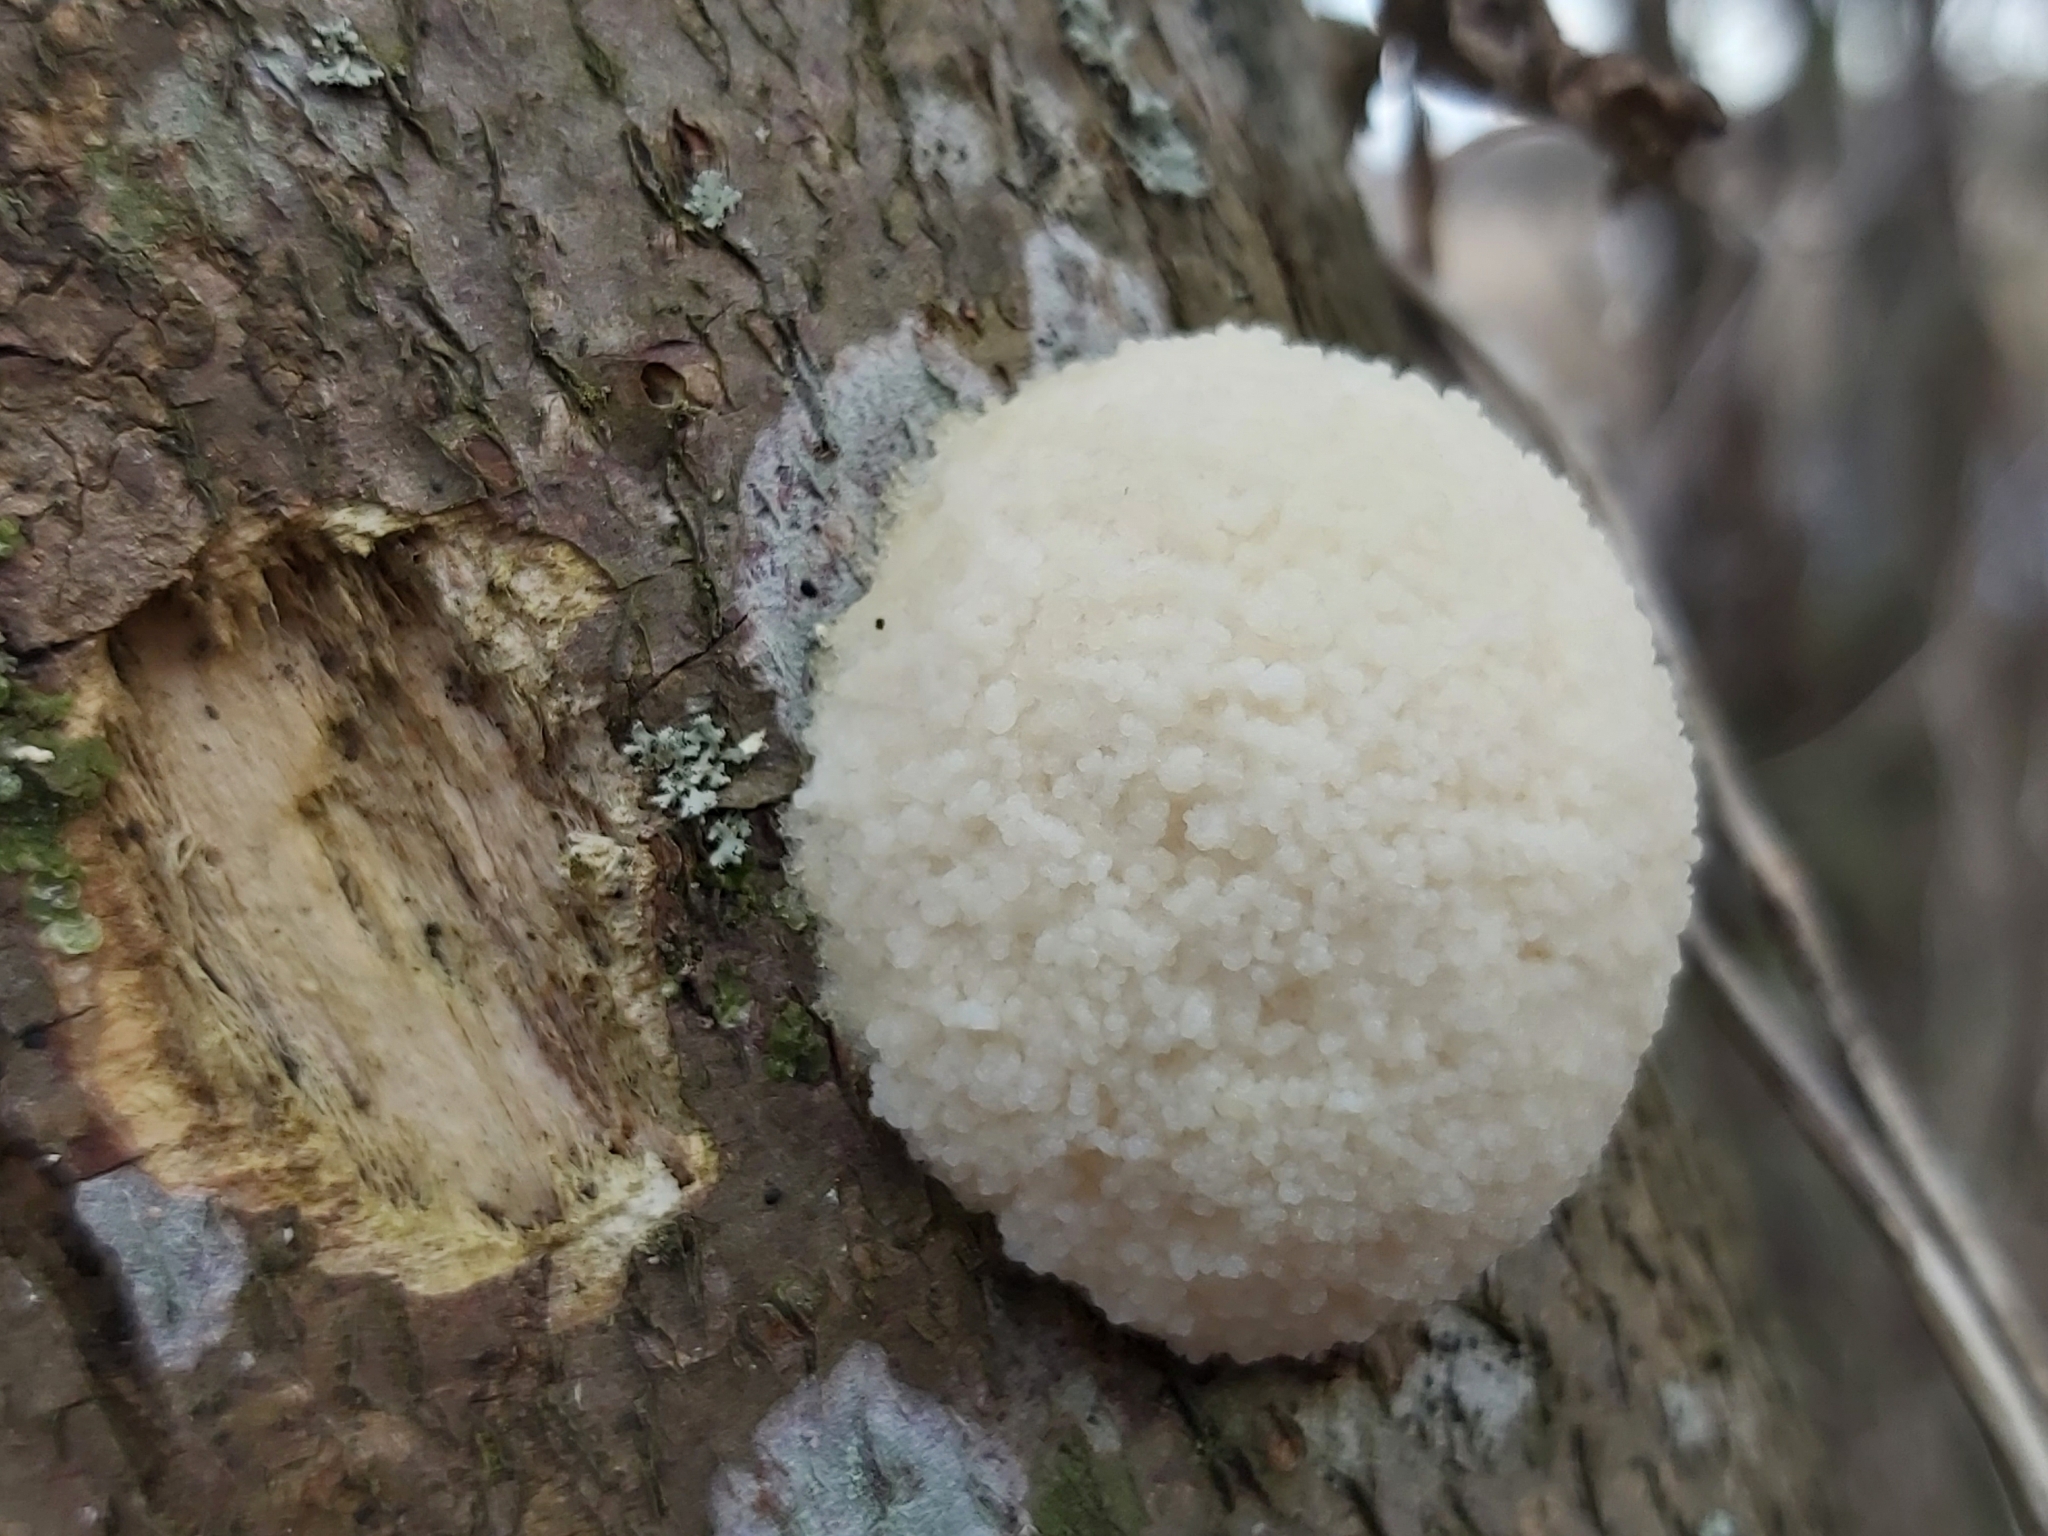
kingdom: Protozoa
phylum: Mycetozoa
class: Myxomycetes
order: Cribrariales
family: Tubiferaceae
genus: Reticularia
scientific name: Reticularia lycoperdon
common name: False puffball
